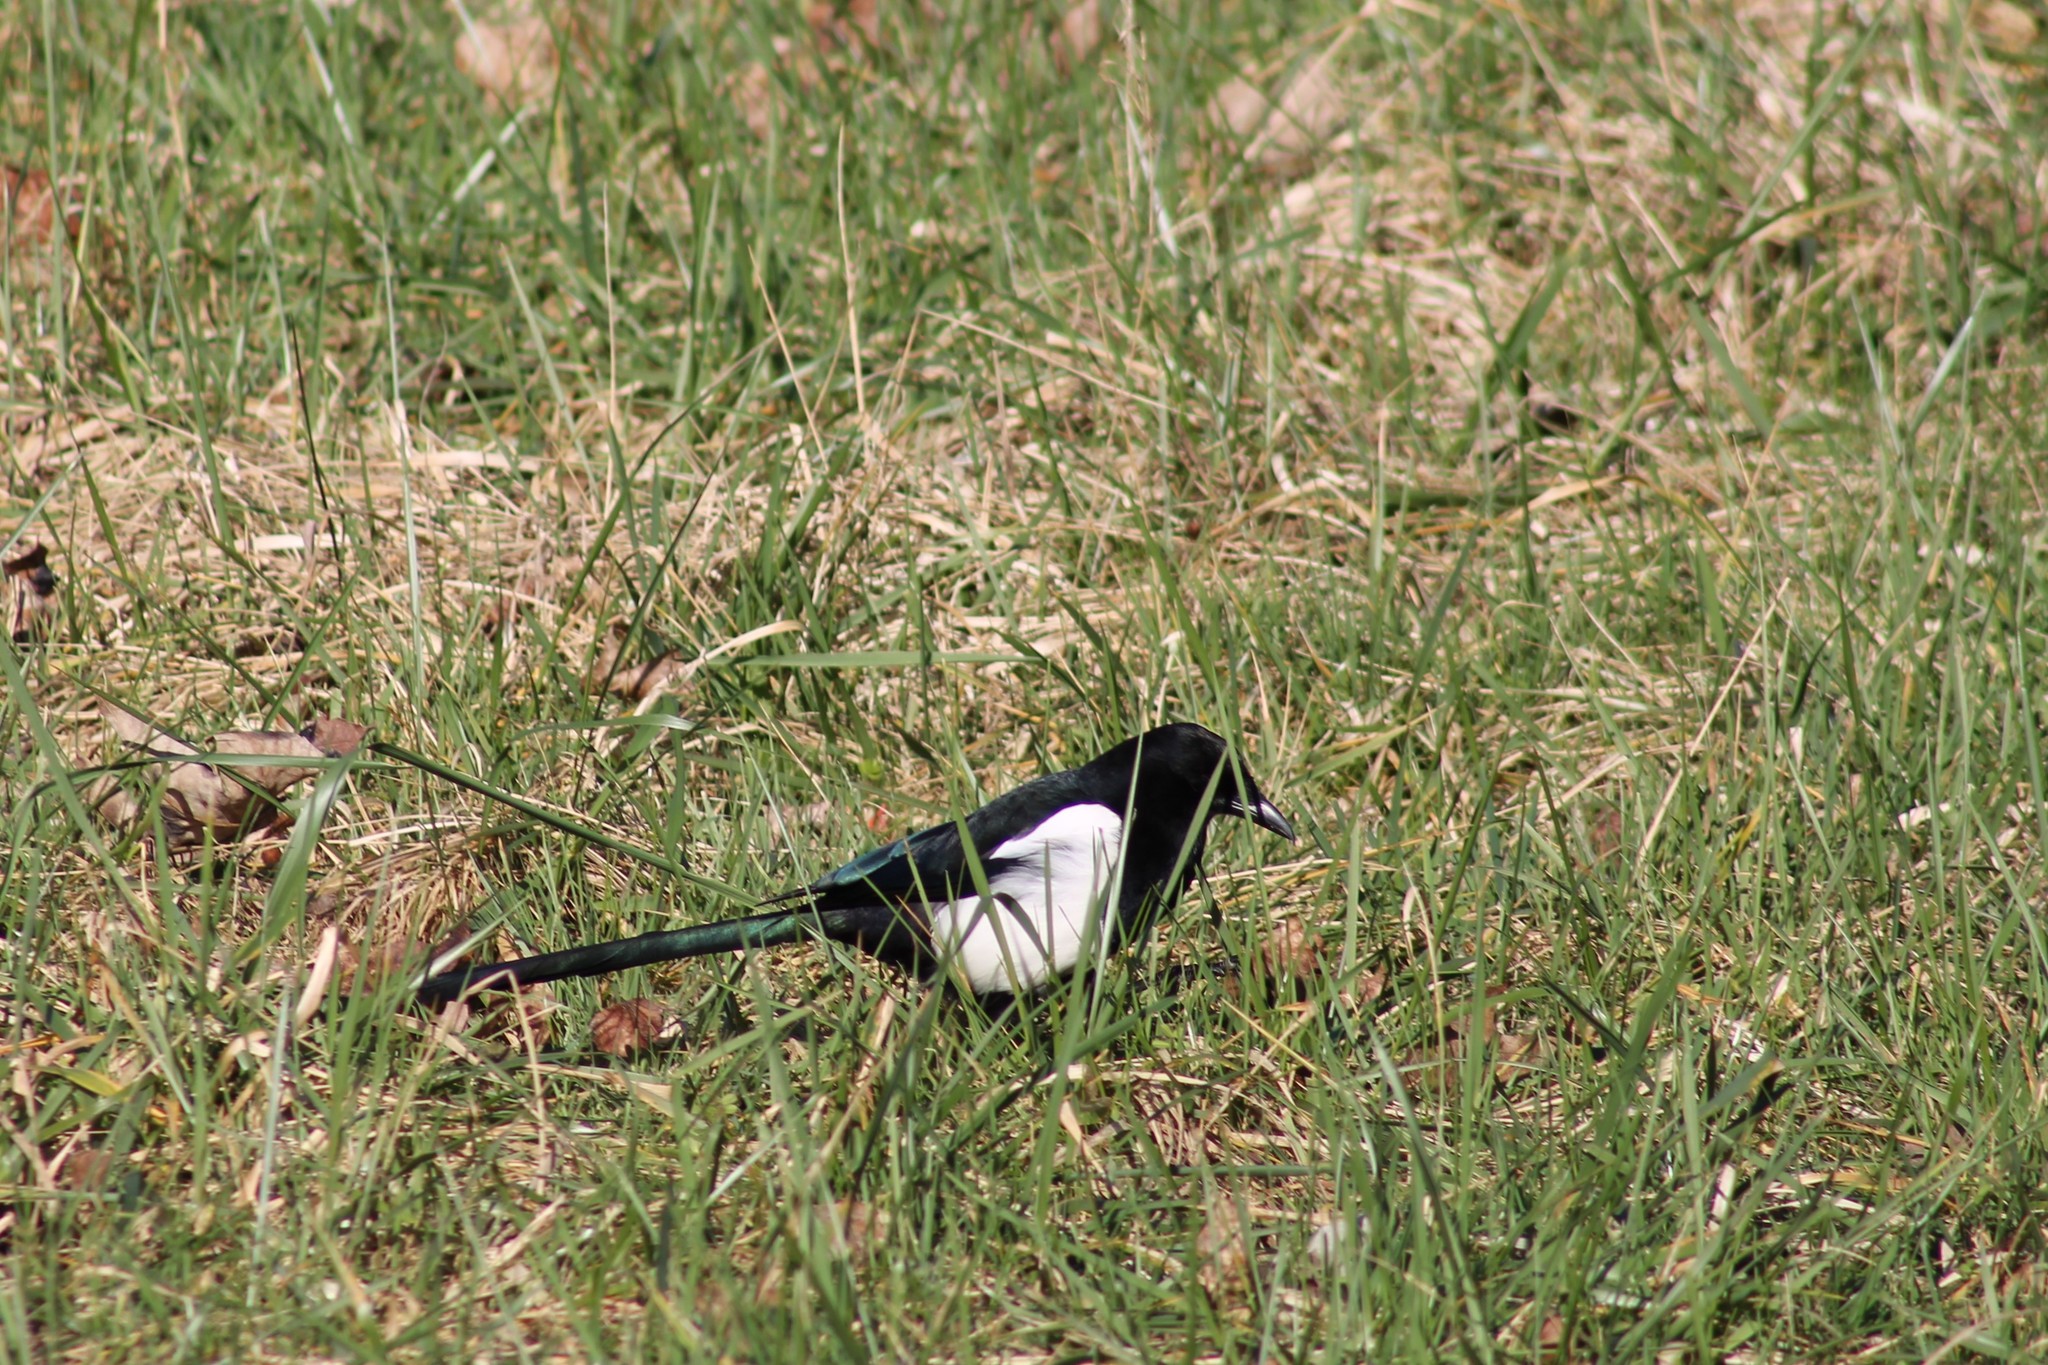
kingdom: Animalia
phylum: Chordata
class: Aves
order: Passeriformes
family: Corvidae
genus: Pica
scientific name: Pica pica
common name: Eurasian magpie
